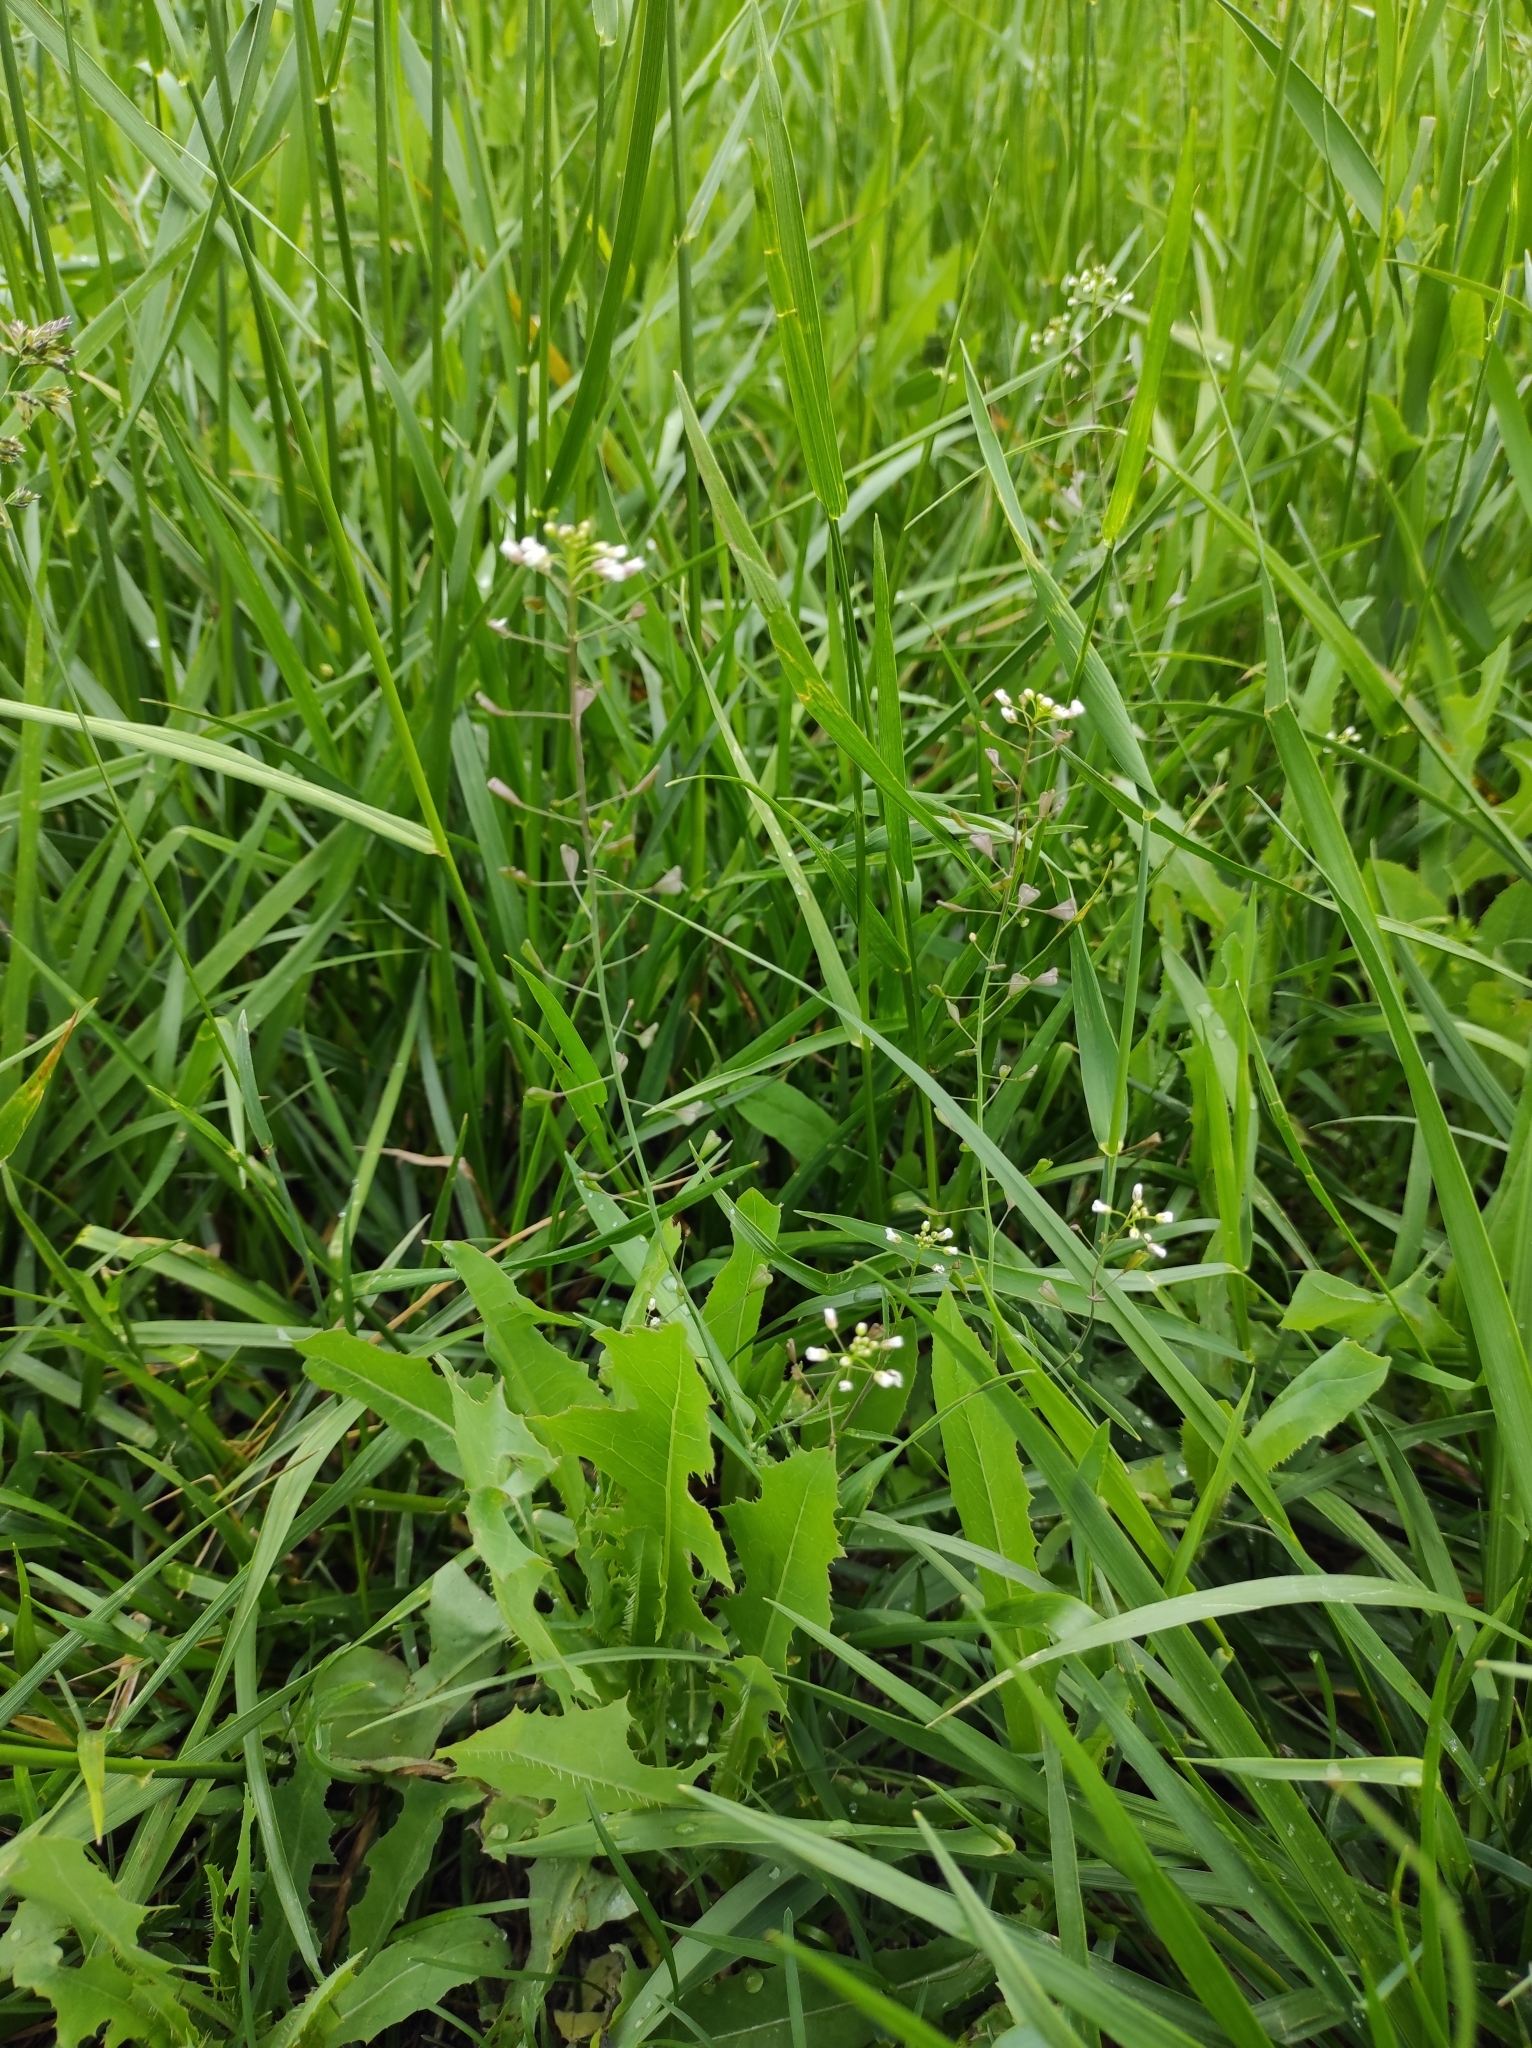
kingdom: Plantae
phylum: Tracheophyta
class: Magnoliopsida
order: Brassicales
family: Brassicaceae
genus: Capsella
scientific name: Capsella bursa-pastoris
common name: Shepherd's purse
